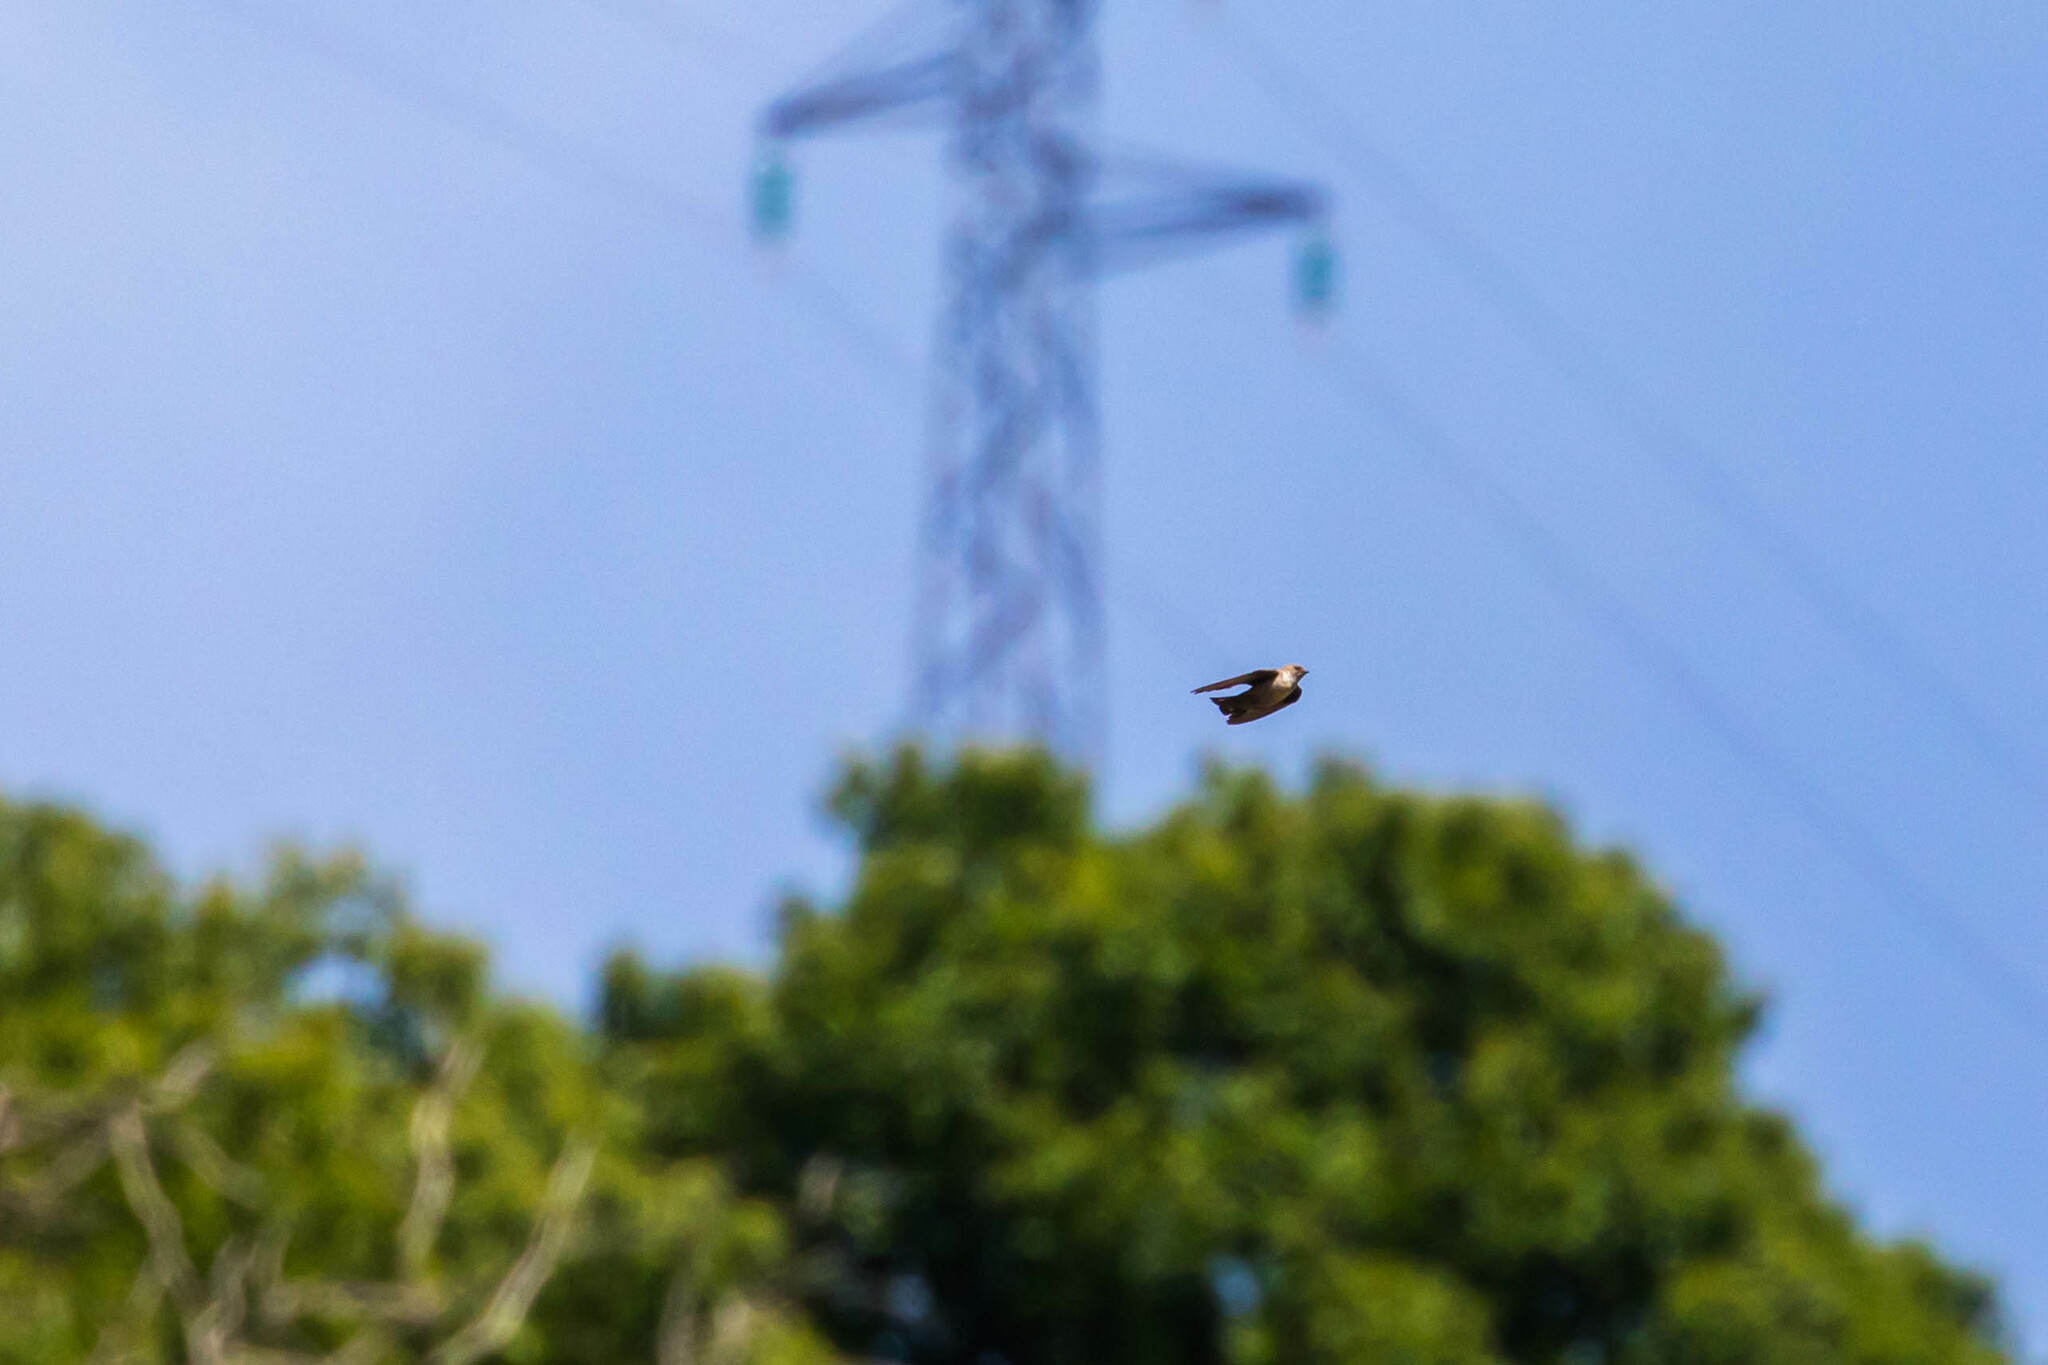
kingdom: Animalia
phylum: Chordata
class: Aves
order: Passeriformes
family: Hirundinidae
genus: Ptyonoprogne
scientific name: Ptyonoprogne rupestris
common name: Eurasian crag martin
